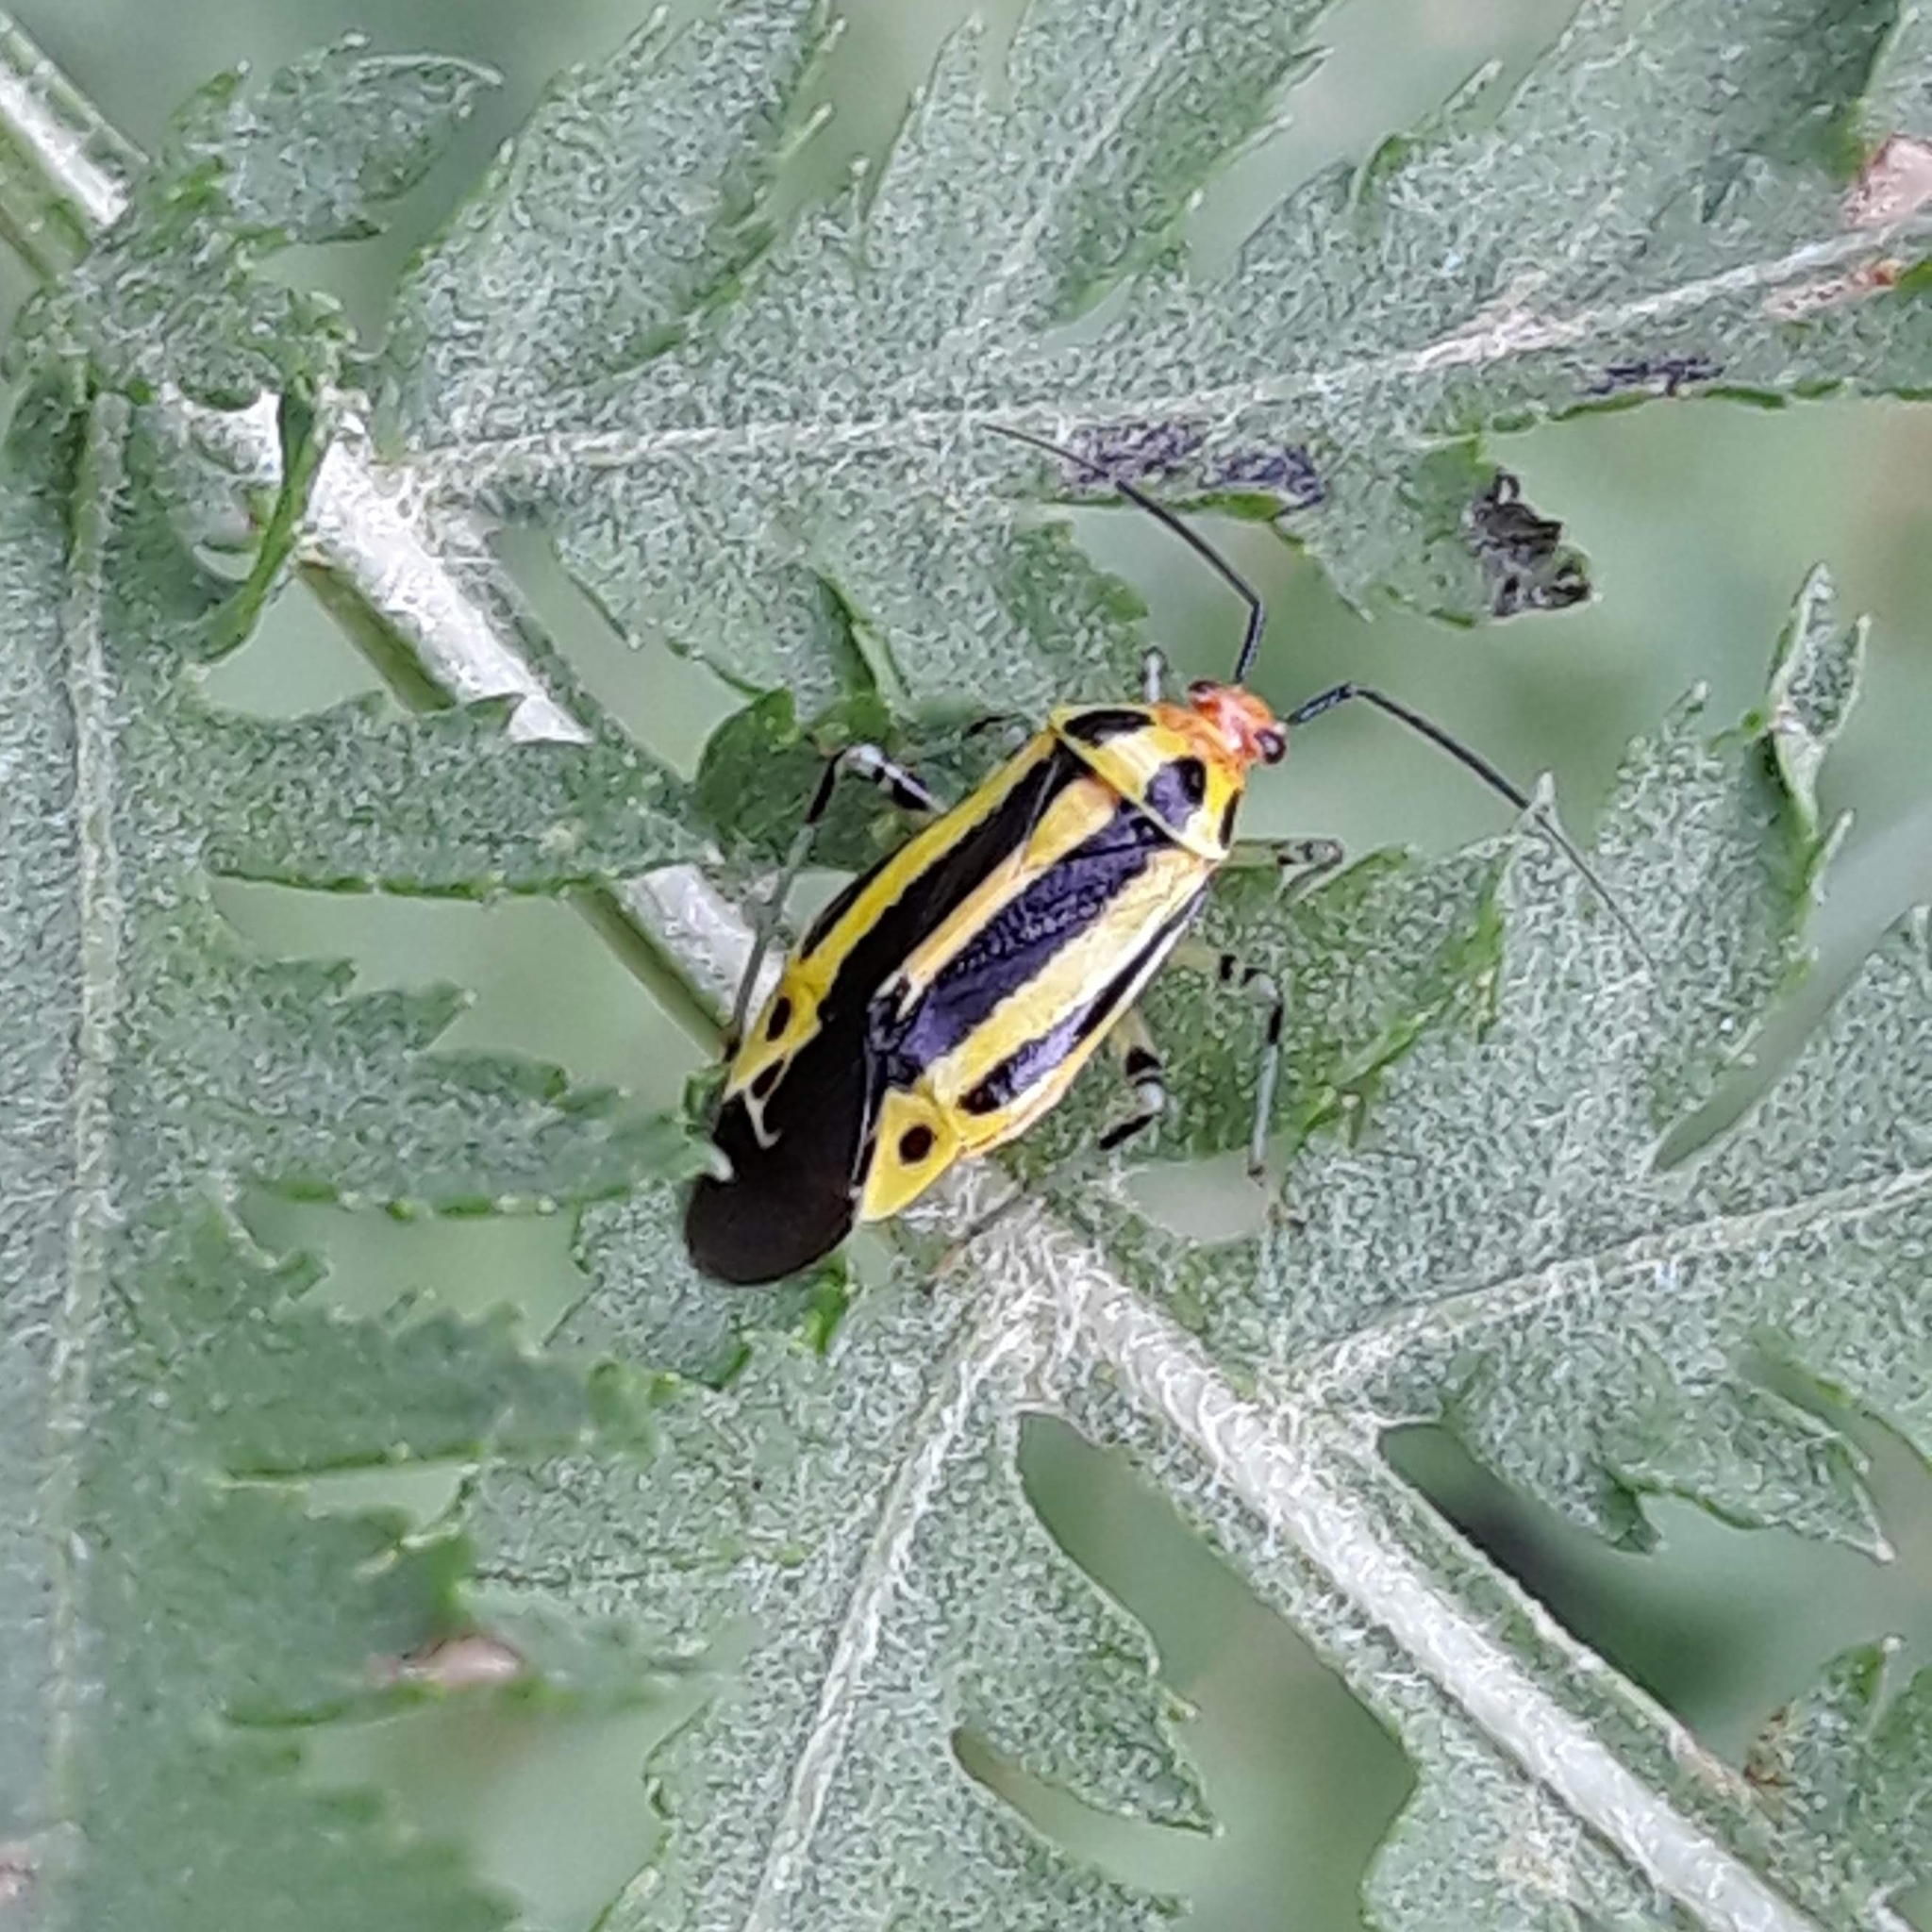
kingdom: Animalia
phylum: Arthropoda
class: Insecta
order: Hemiptera
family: Miridae
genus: Poecilocapsus
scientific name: Poecilocapsus lineatus
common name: Four-lined plant bug
